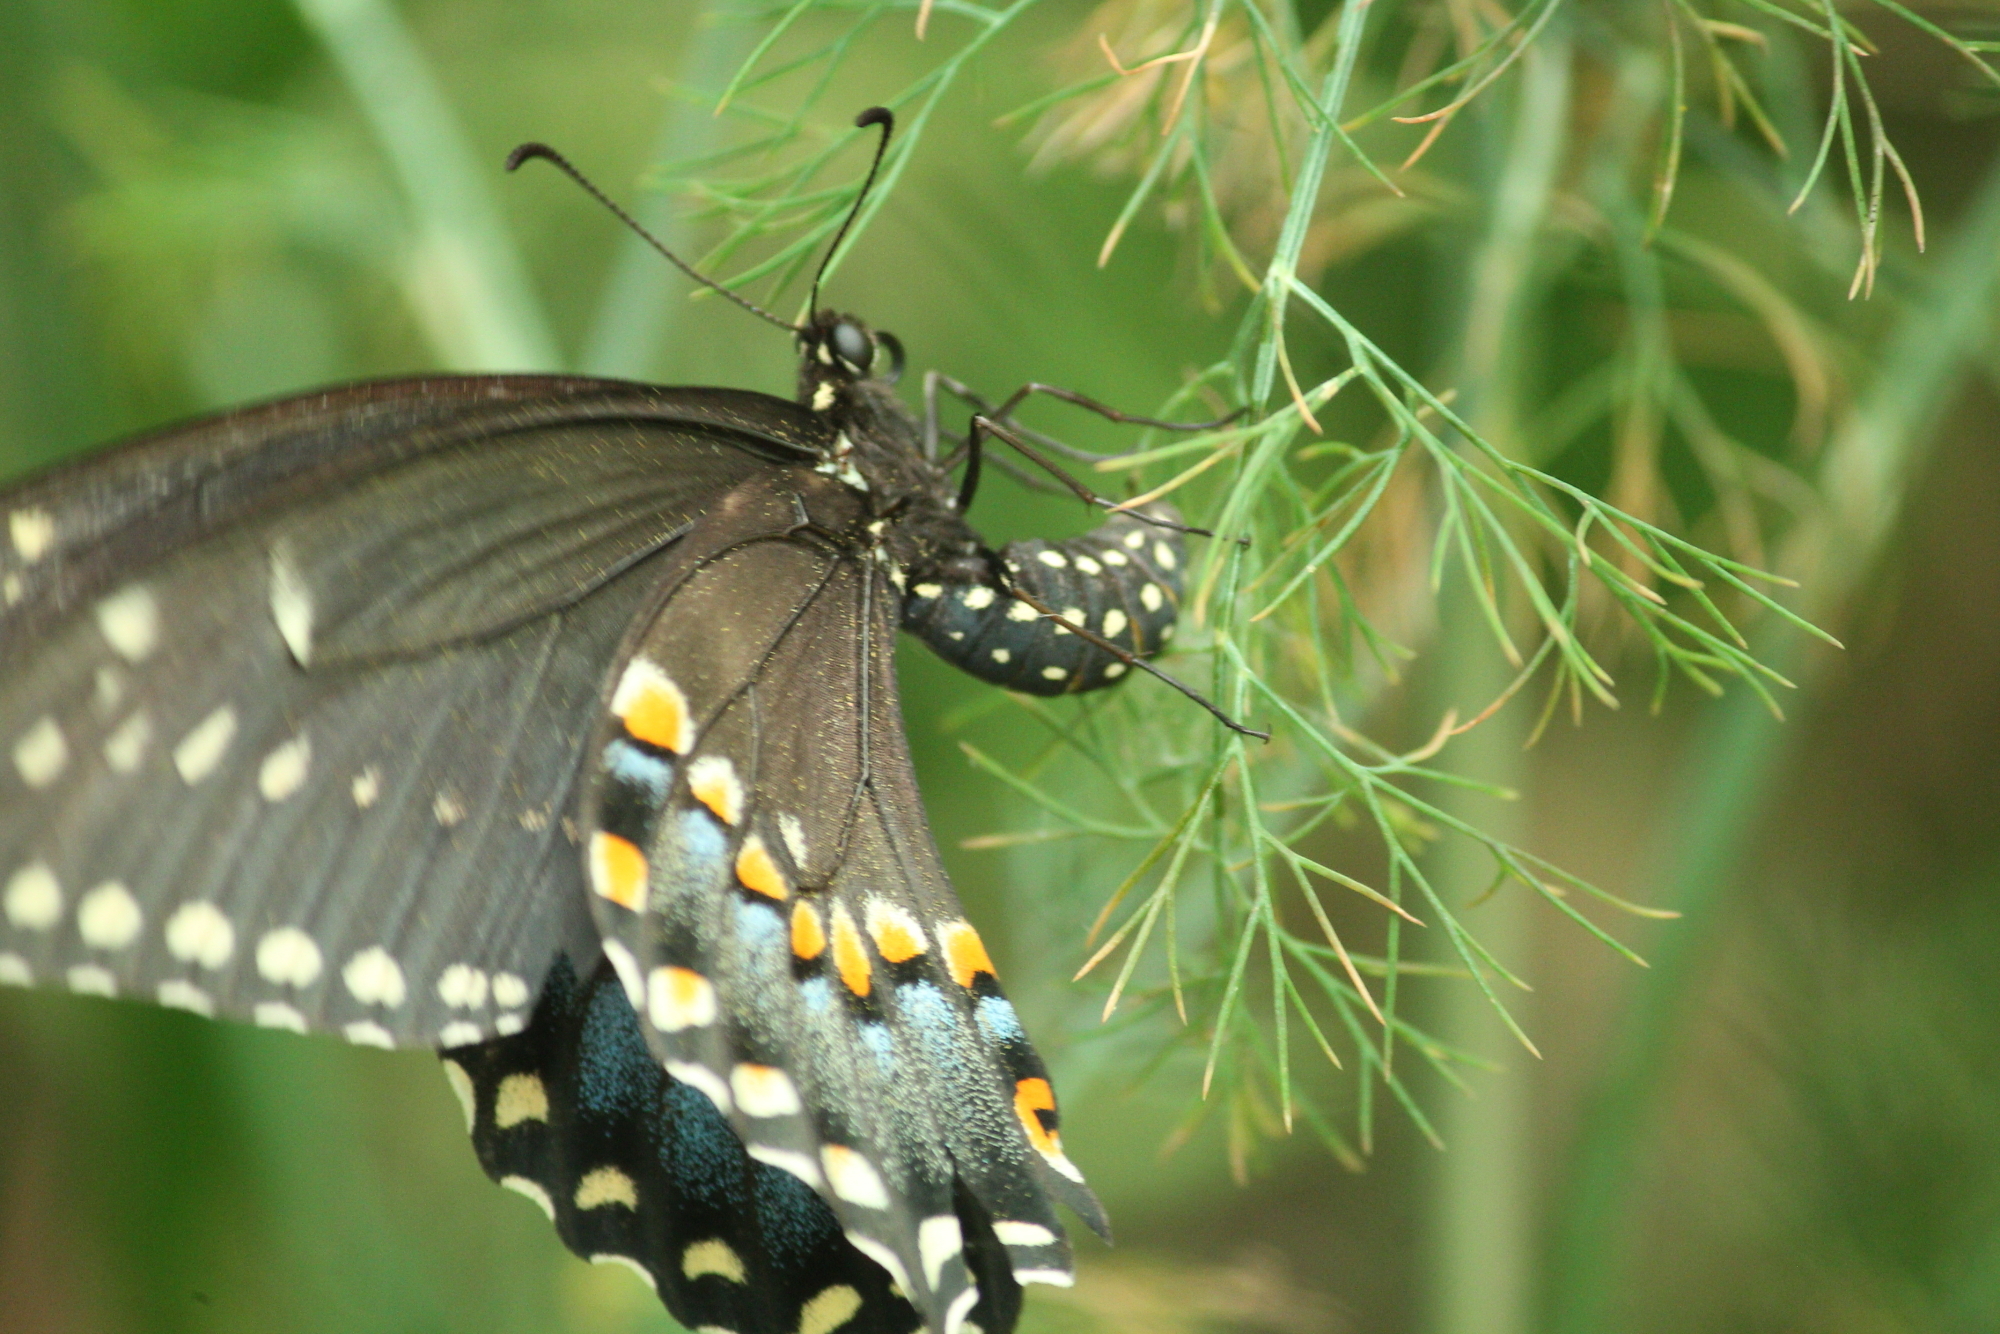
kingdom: Animalia
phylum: Arthropoda
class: Insecta
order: Lepidoptera
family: Papilionidae
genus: Papilio
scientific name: Papilio polyxenes
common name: Black swallowtail
